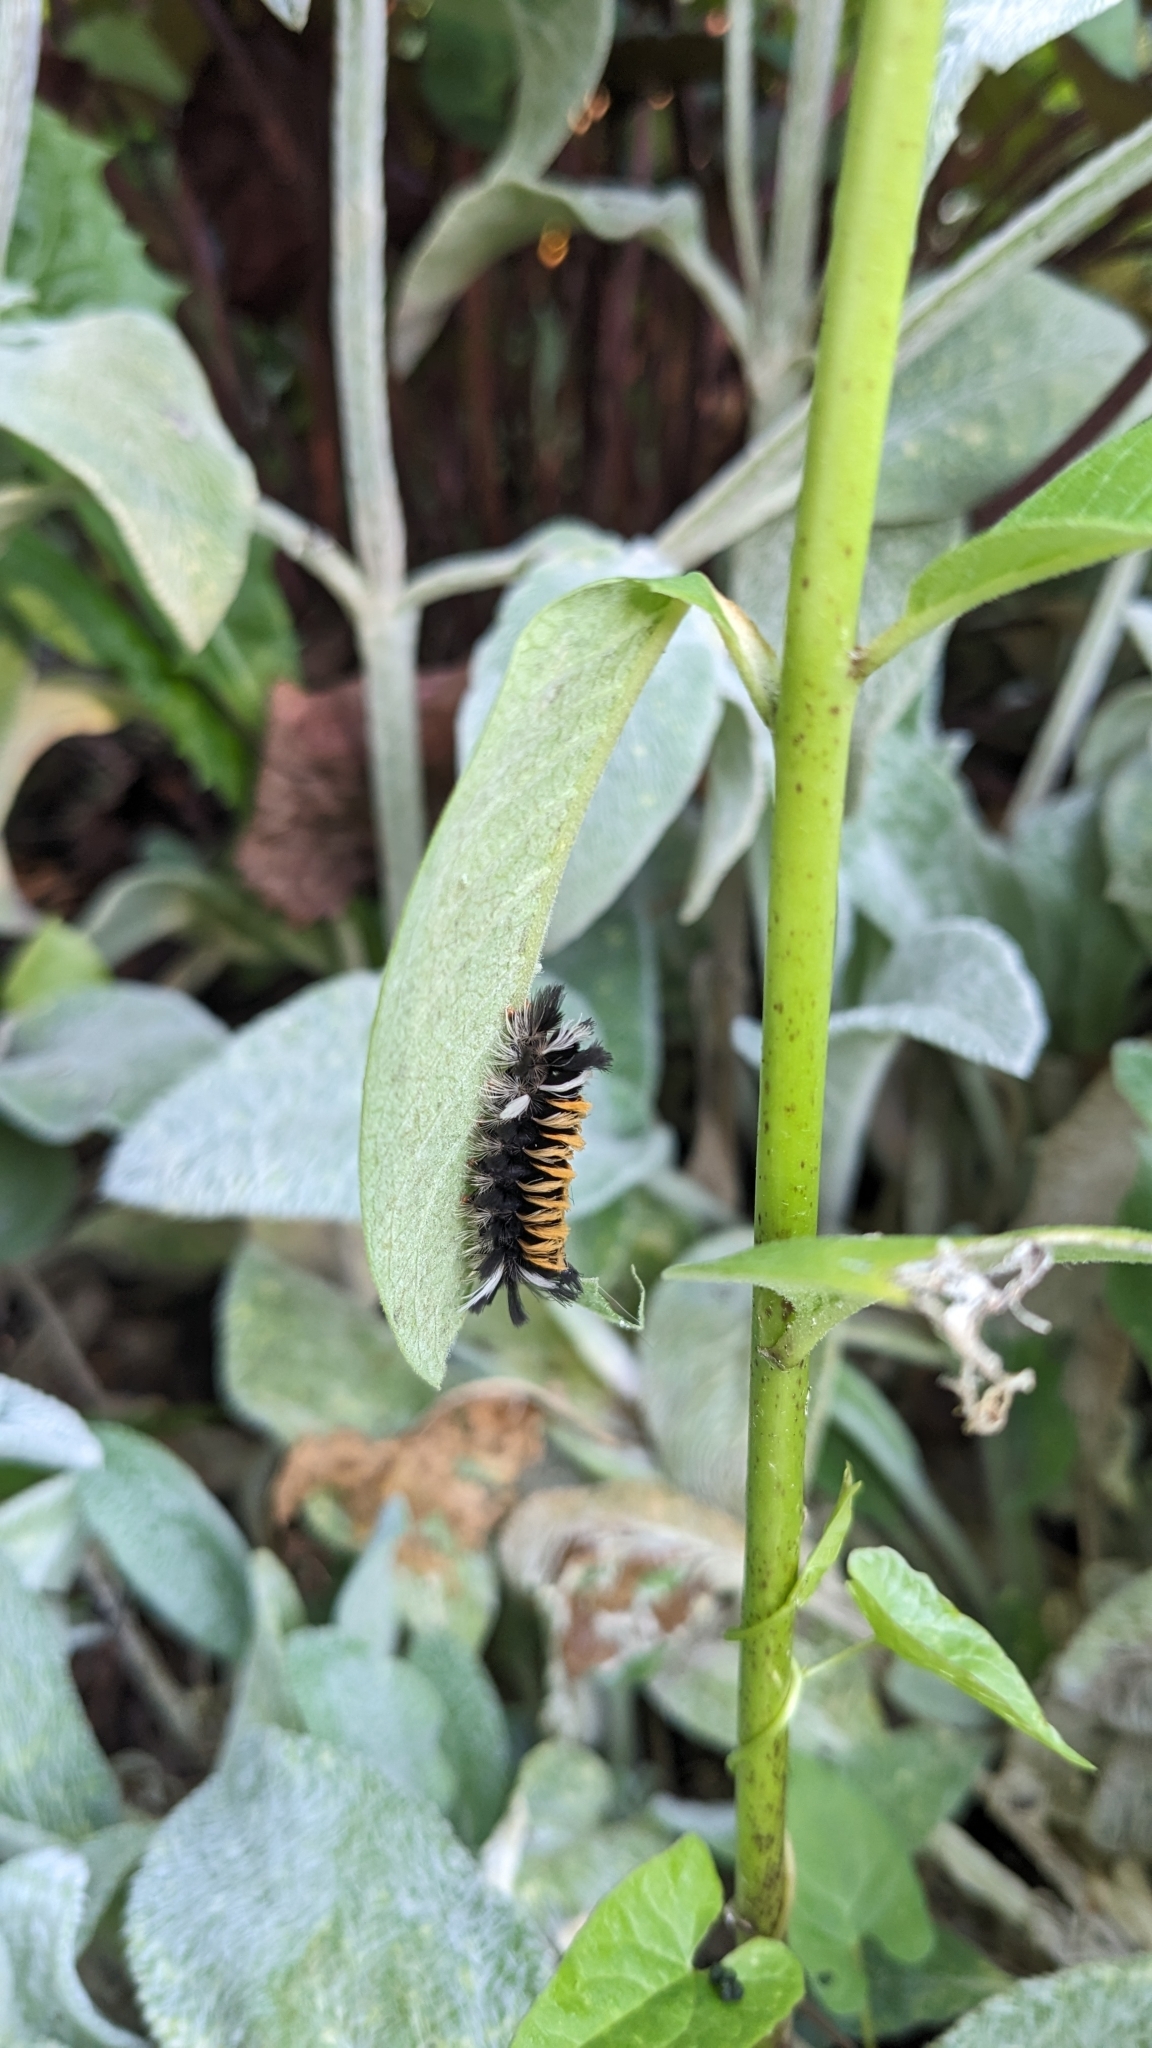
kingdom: Animalia
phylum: Arthropoda
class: Insecta
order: Lepidoptera
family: Erebidae
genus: Euchaetes
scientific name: Euchaetes egle
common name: Milkweed tussock moth
